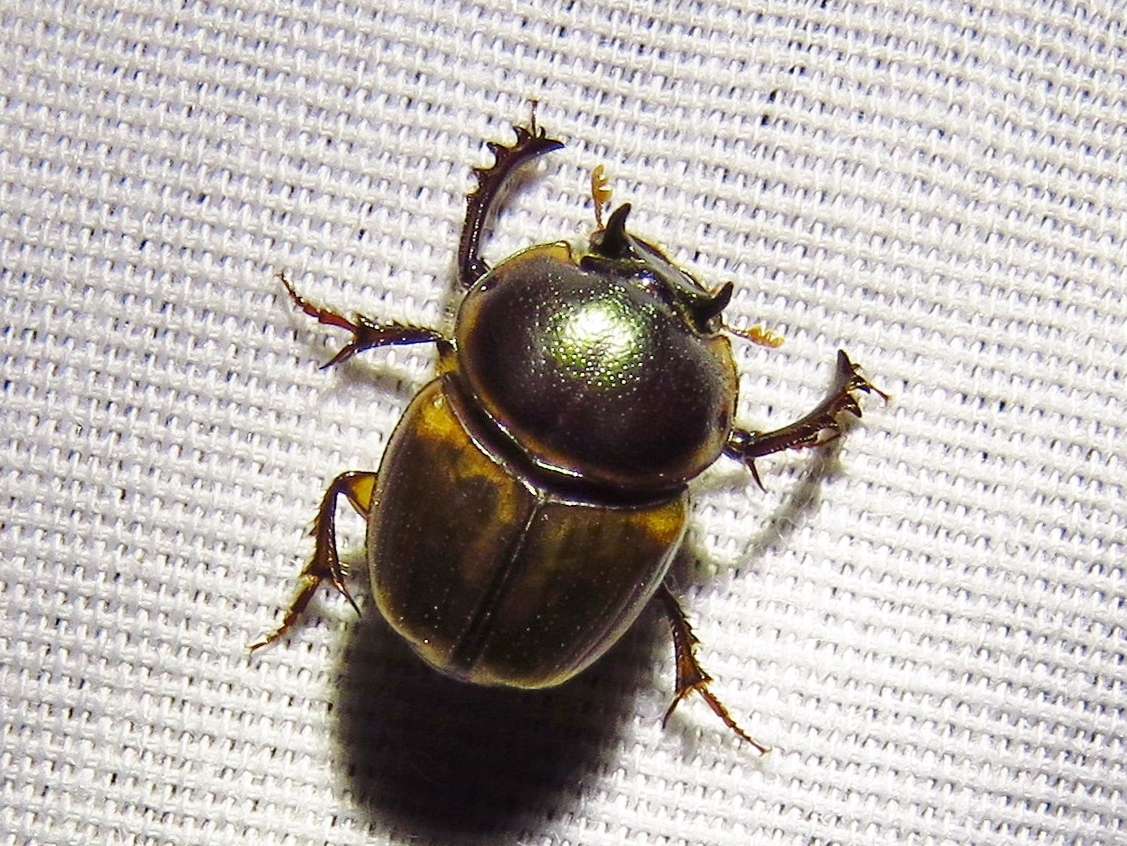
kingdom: Animalia
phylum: Arthropoda
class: Insecta
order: Coleoptera
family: Scarabaeidae
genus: Digitonthophagus
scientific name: Digitonthophagus gazella
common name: Brown dung beetle
